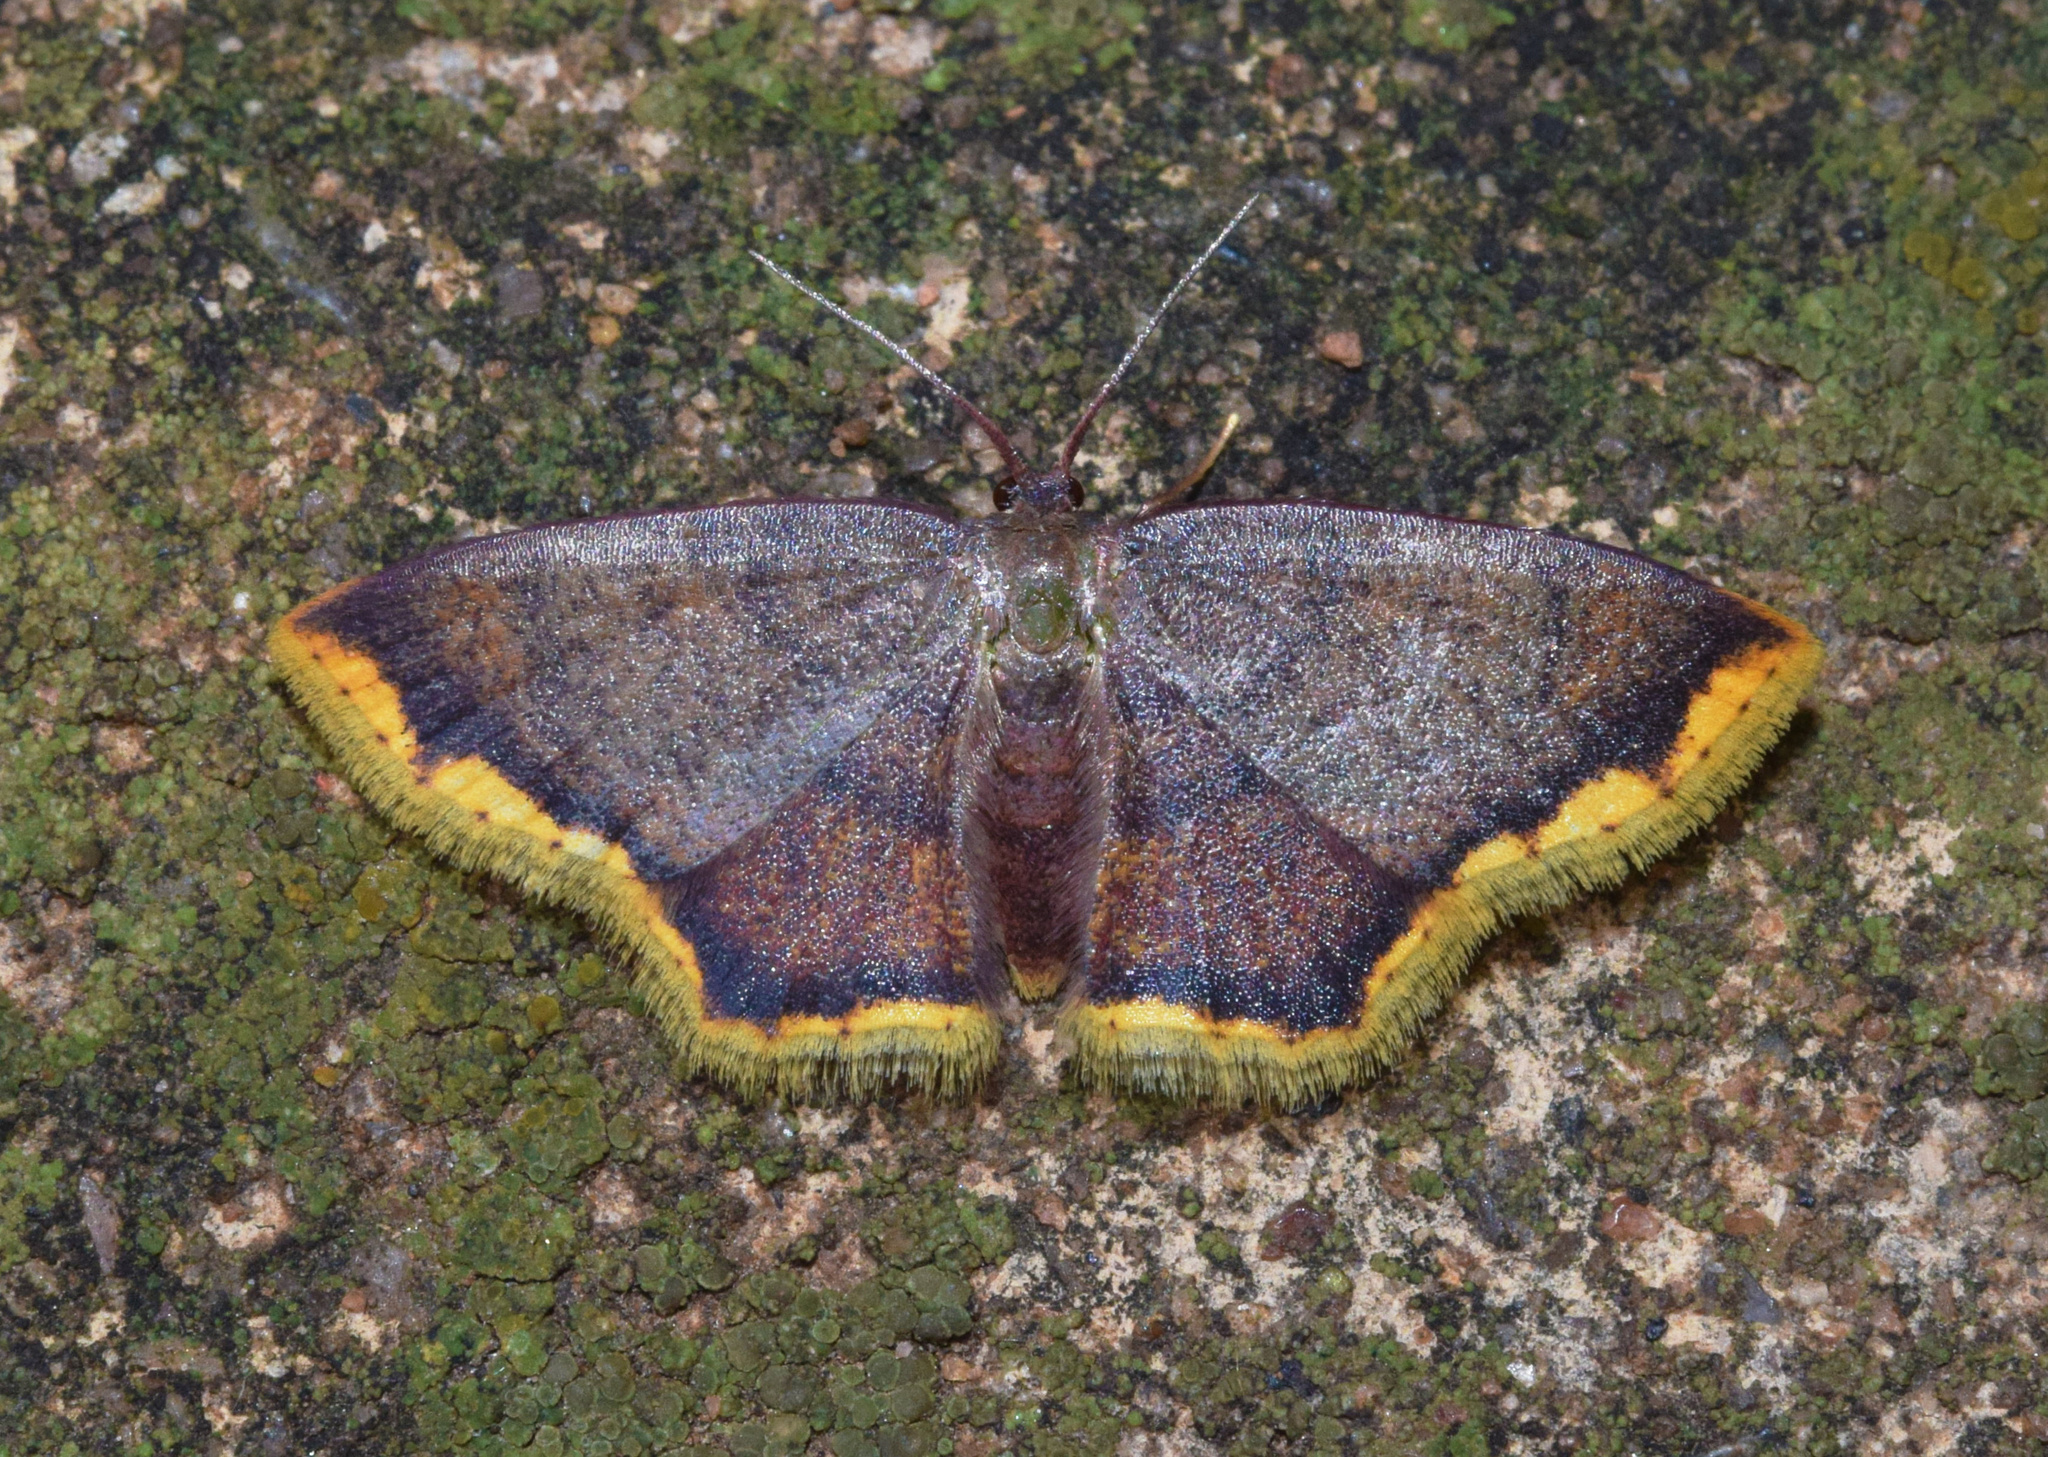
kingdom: Animalia
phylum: Arthropoda
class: Insecta
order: Lepidoptera
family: Geometridae
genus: Chrysocraspeda
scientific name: Chrysocraspeda leighata
